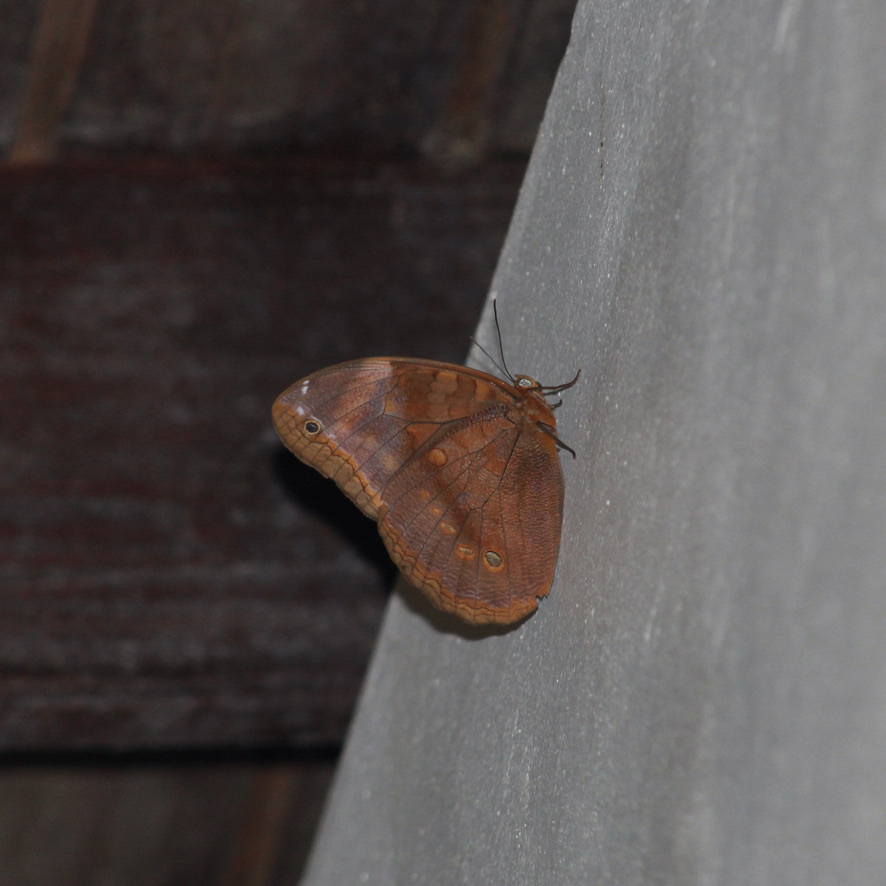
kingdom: Animalia
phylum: Arthropoda
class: Insecta
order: Lepidoptera
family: Nymphalidae
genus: Catoblepia
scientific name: Catoblepia berecynthia
